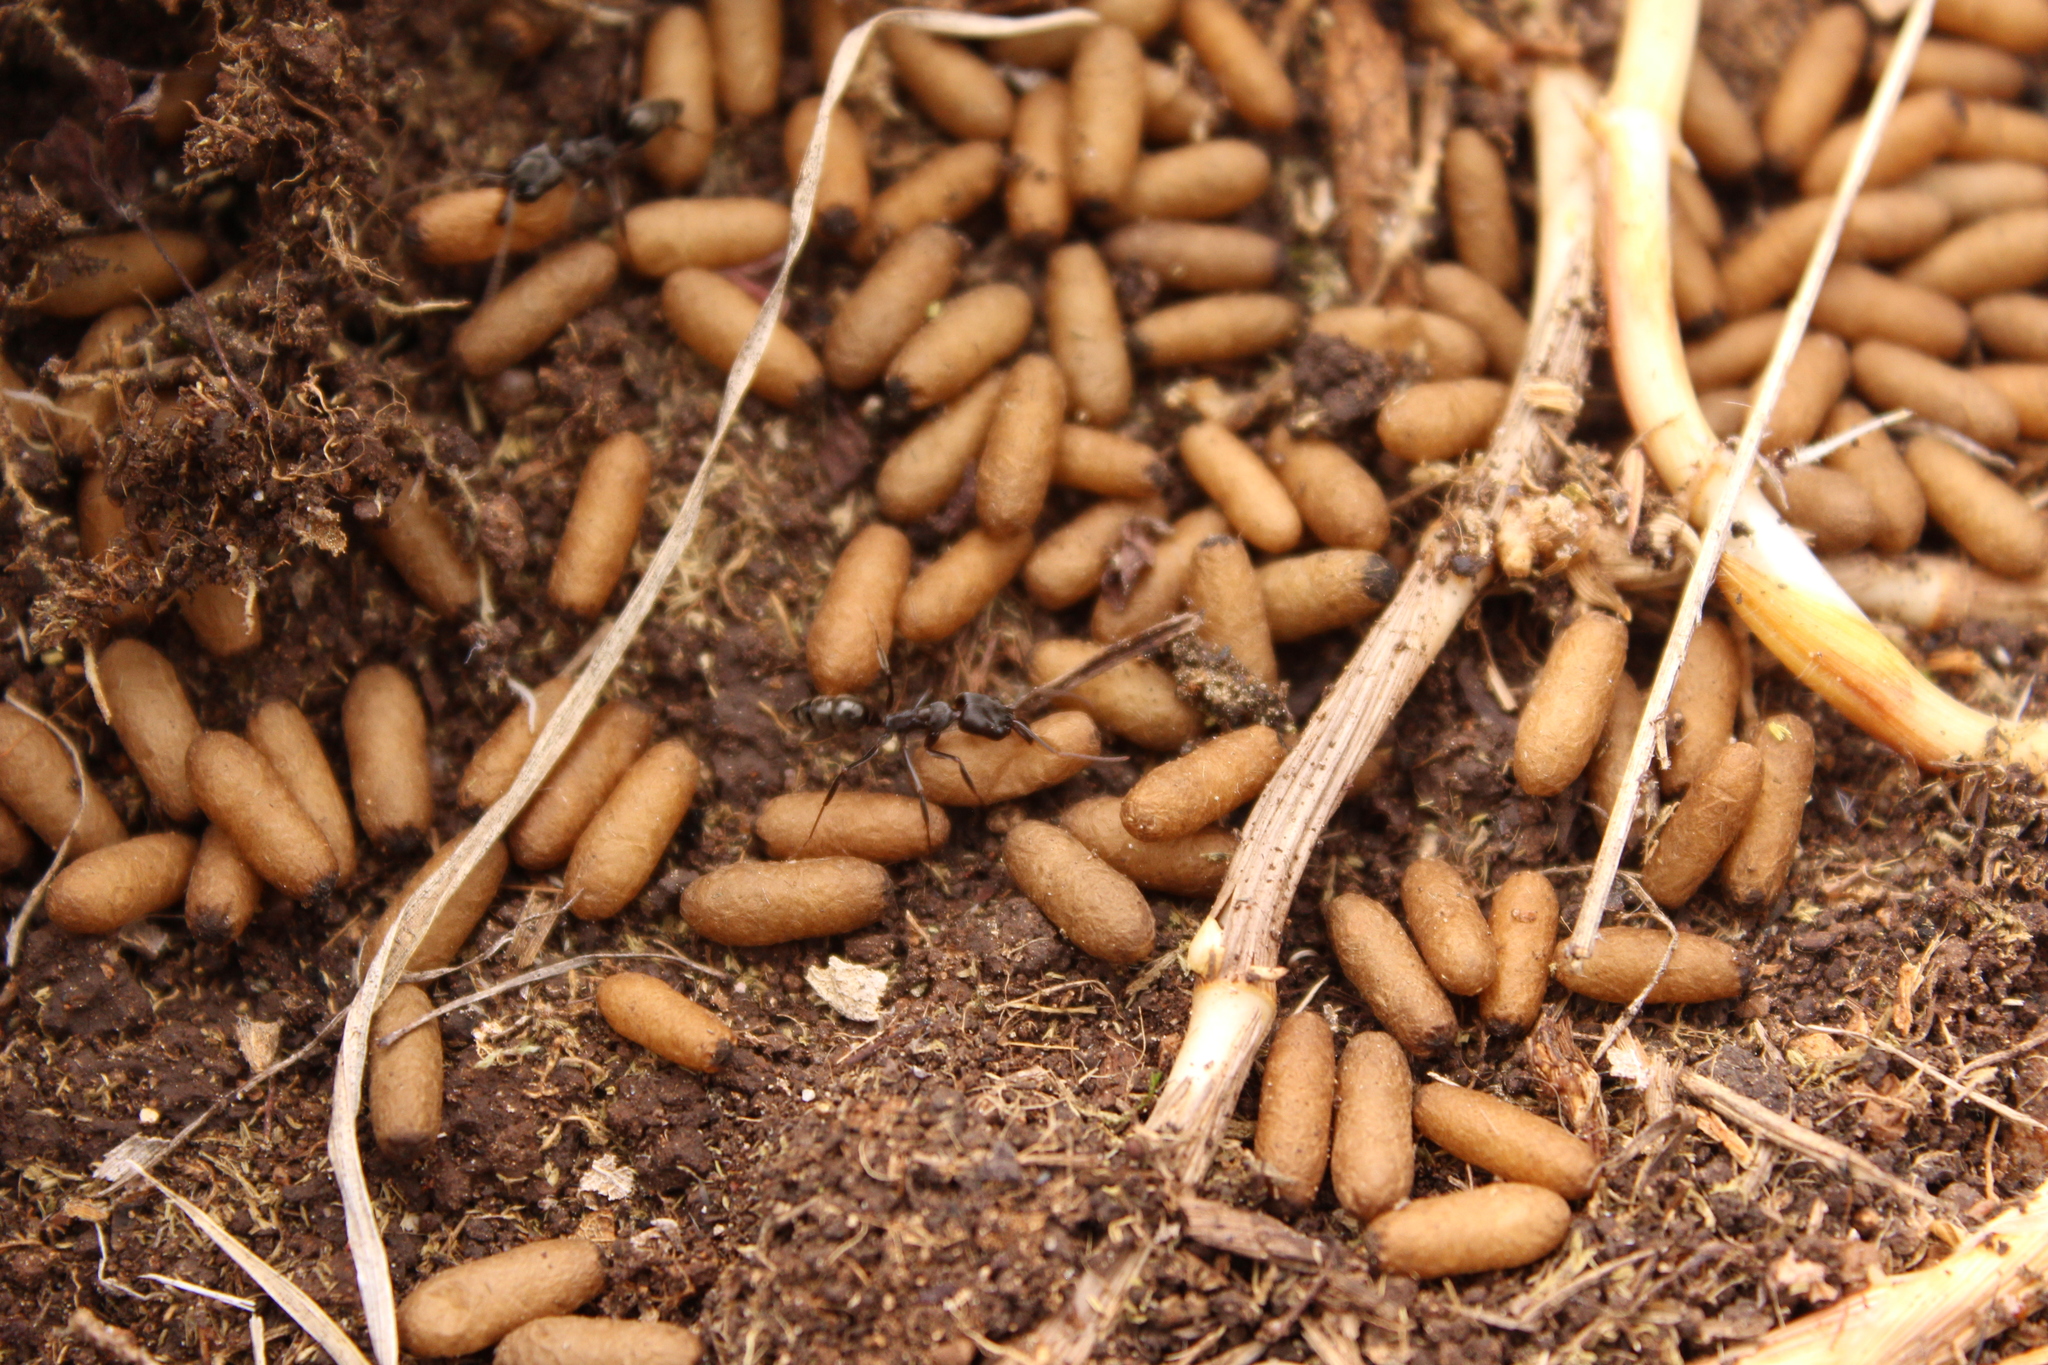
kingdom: Animalia
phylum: Arthropoda
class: Insecta
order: Hymenoptera
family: Formicidae
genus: Odontomachus
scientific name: Odontomachus
